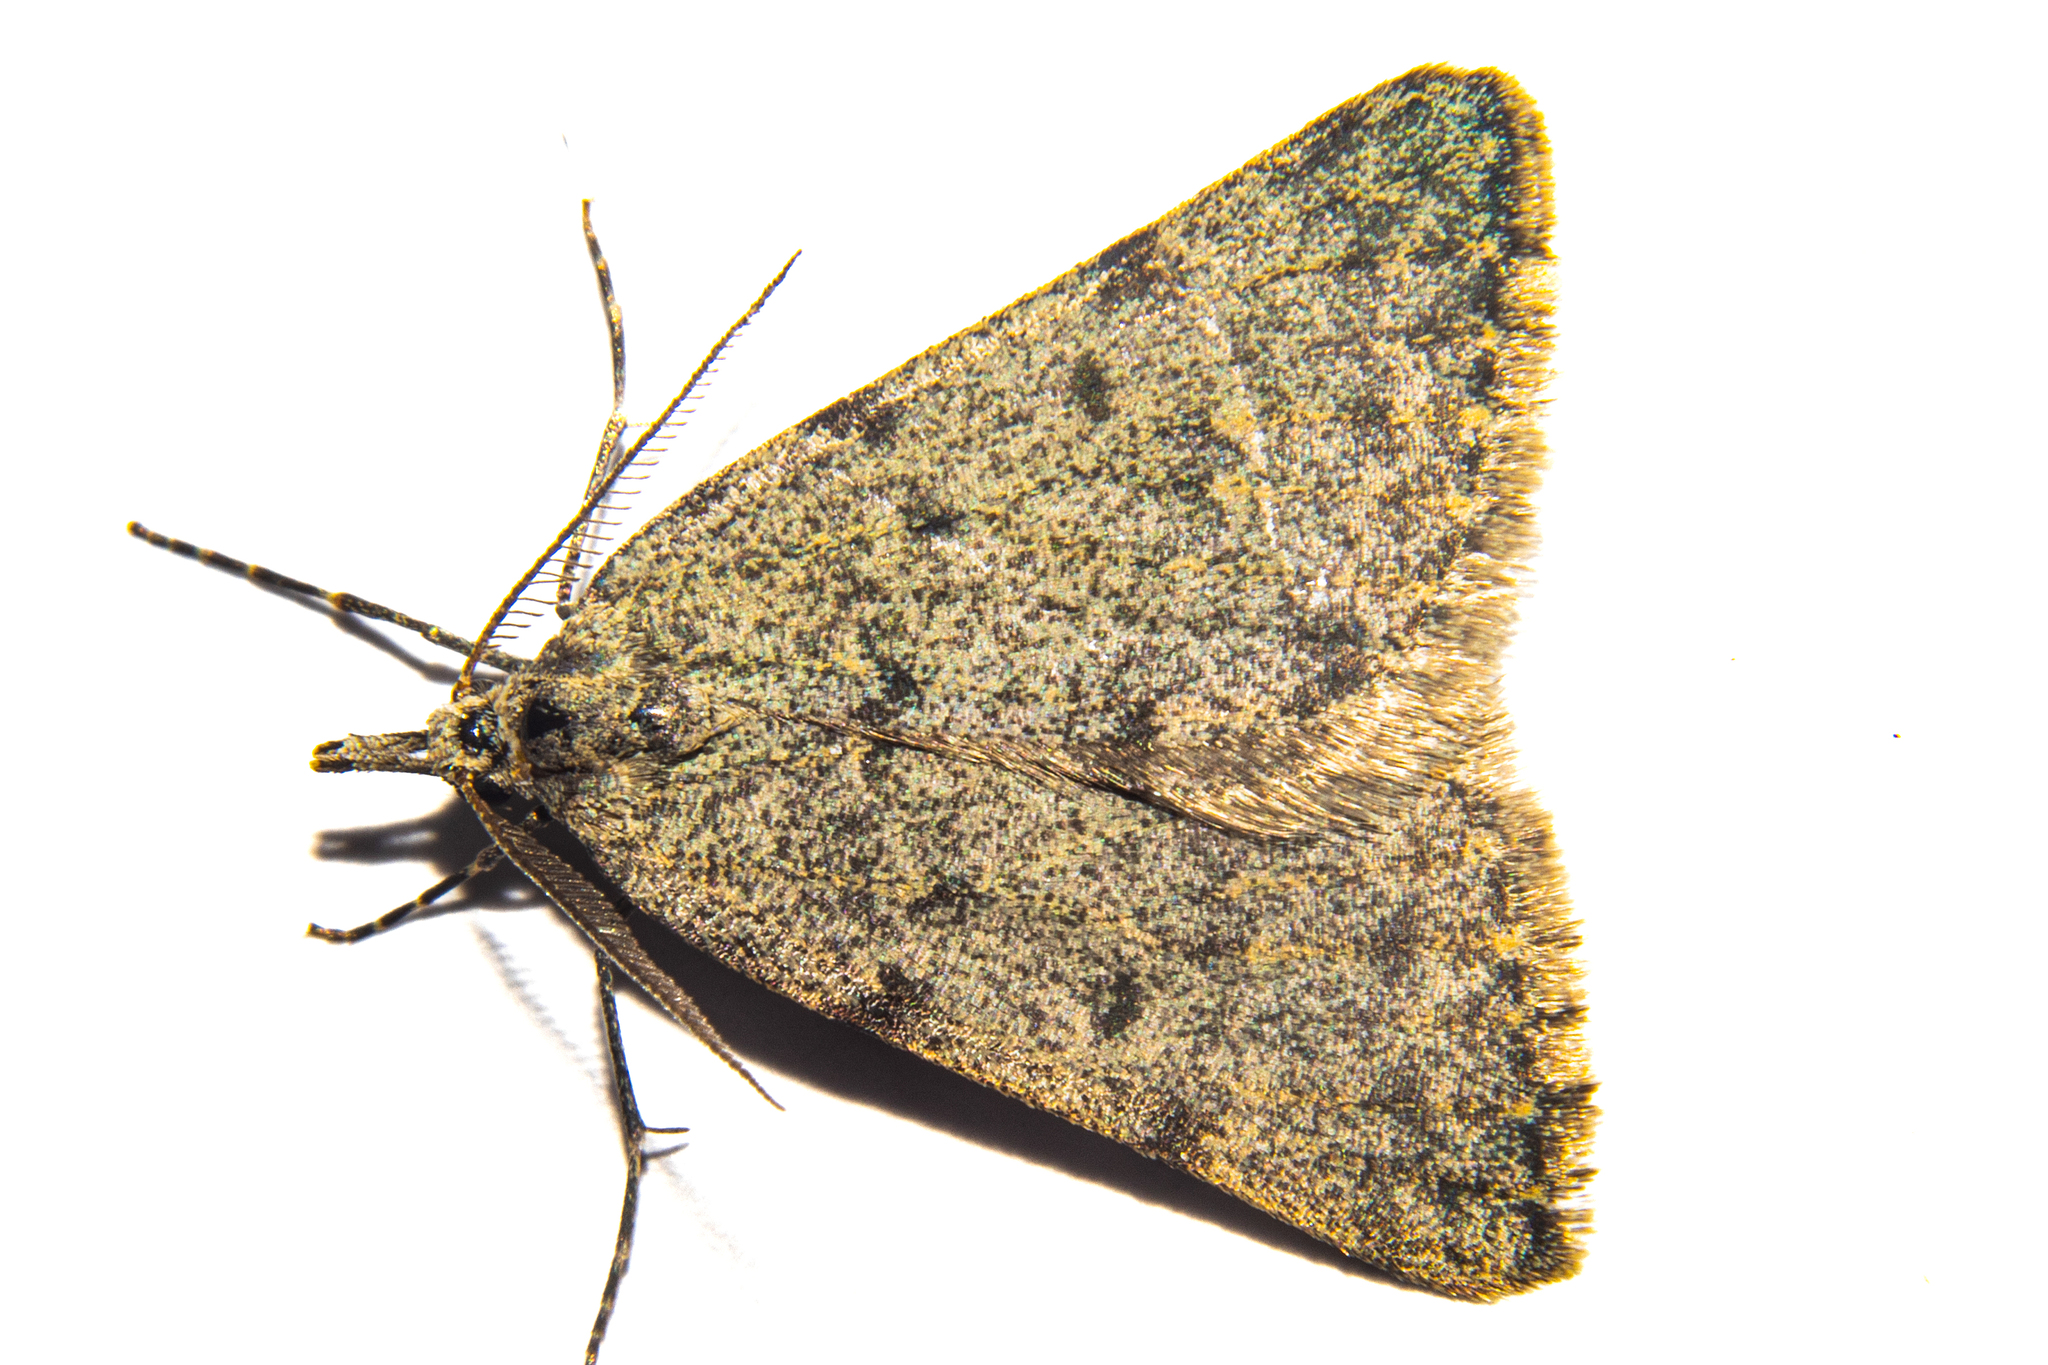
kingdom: Animalia
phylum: Arthropoda
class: Insecta
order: Lepidoptera
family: Geometridae
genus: Dichromodes
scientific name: Dichromodes sphaeriata
